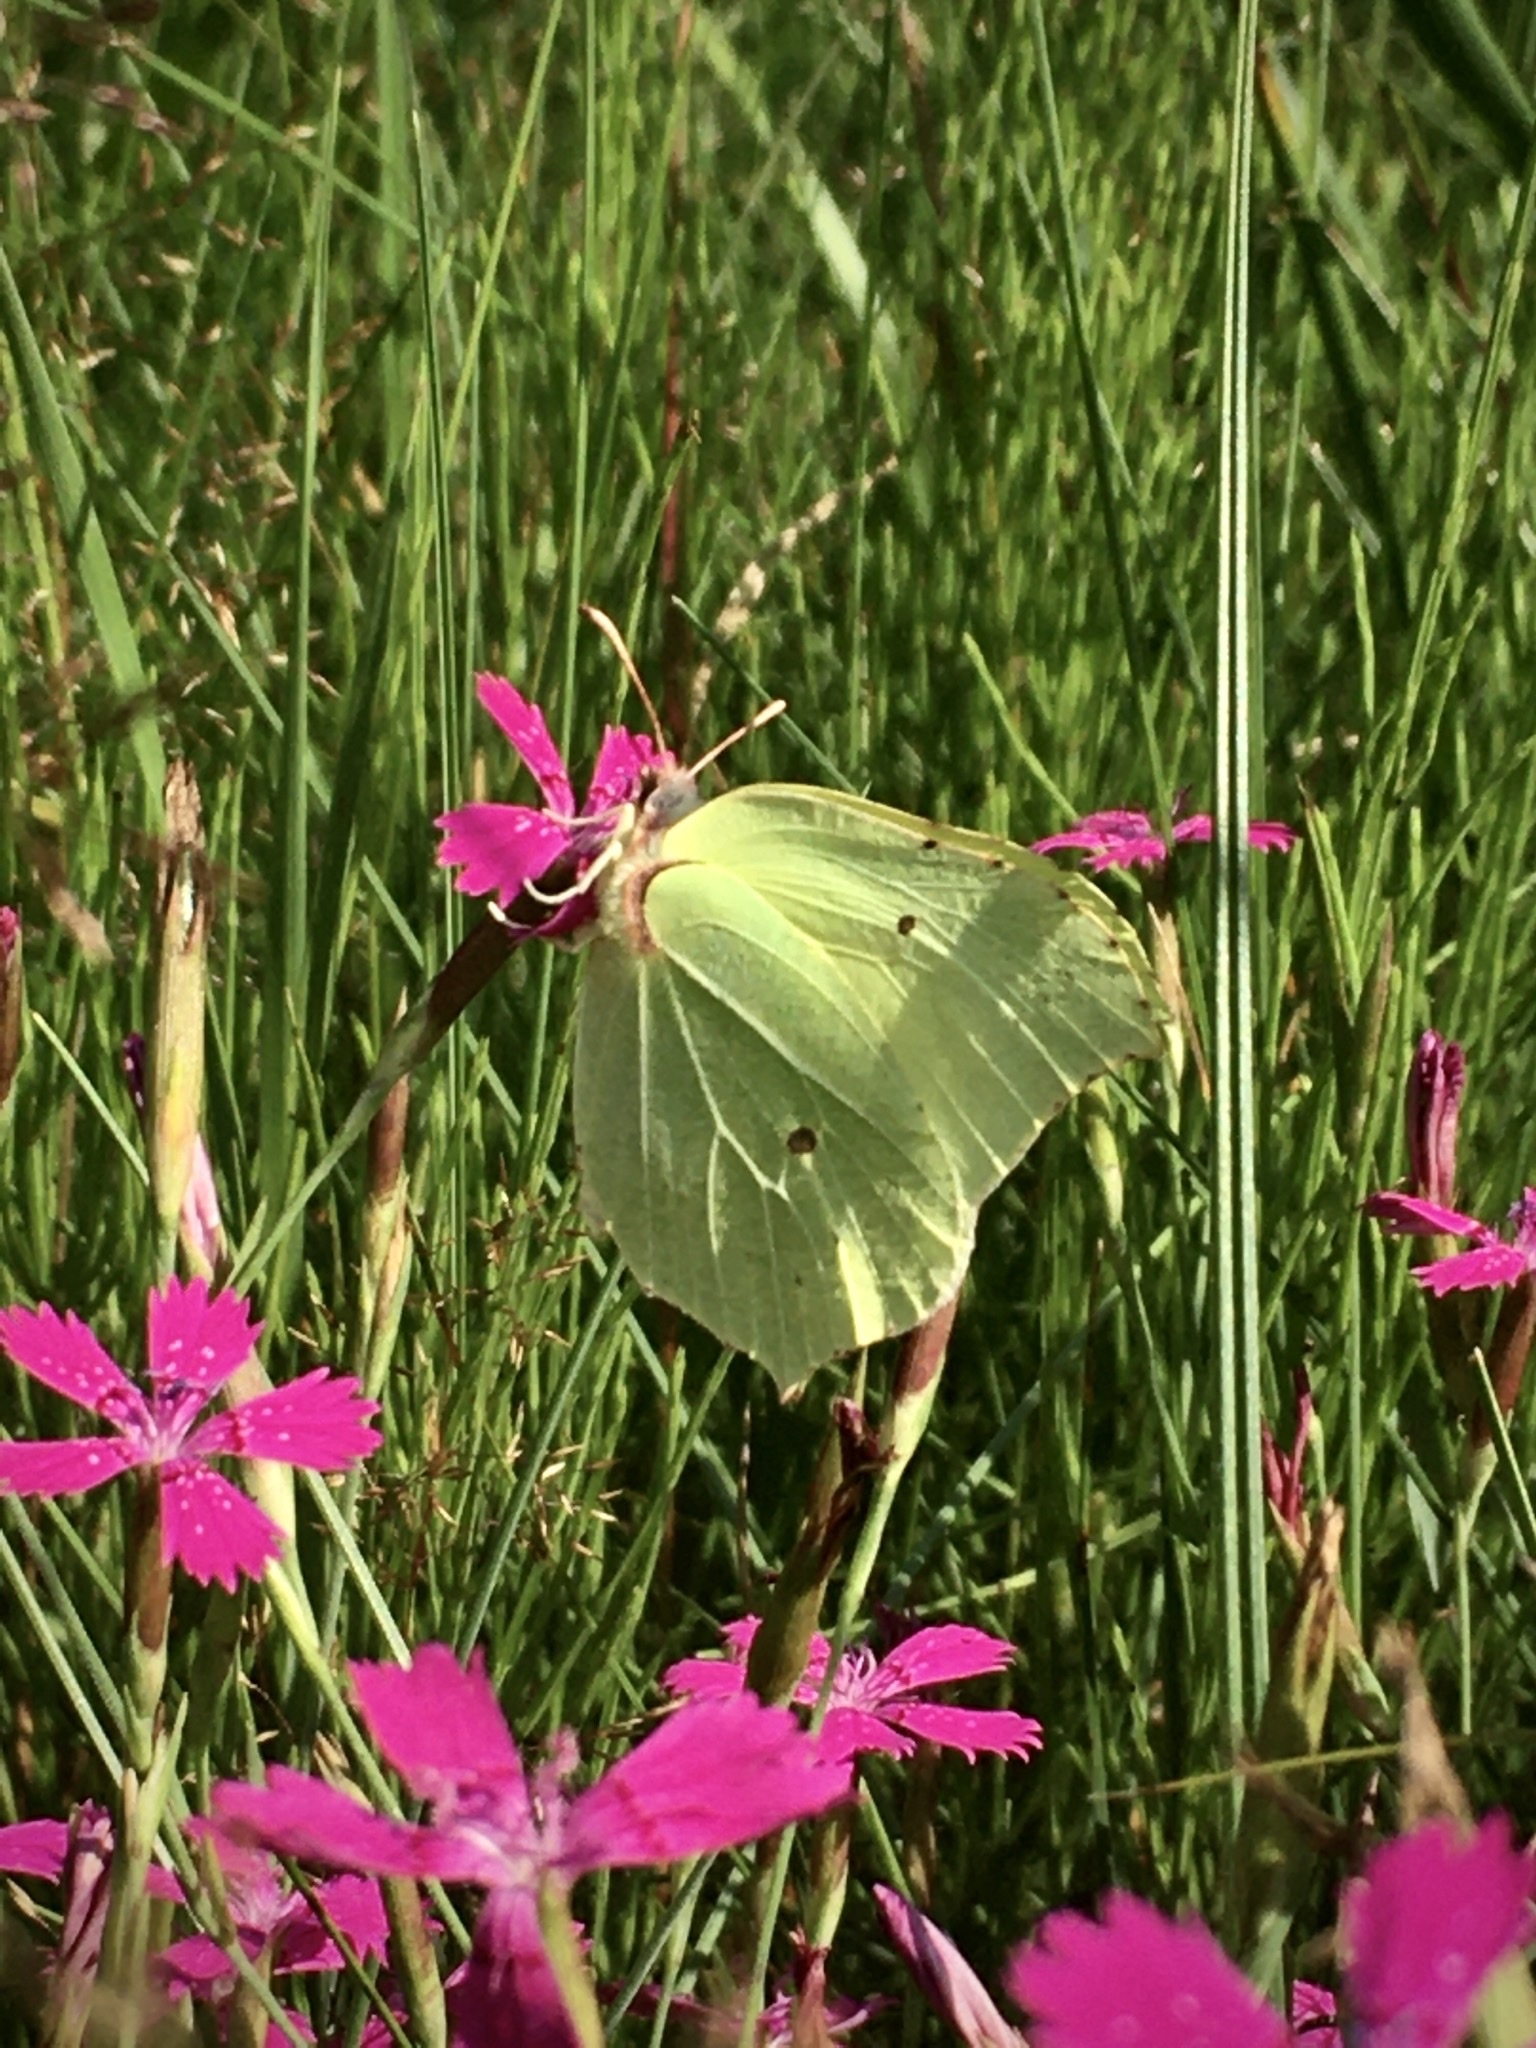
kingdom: Animalia
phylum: Arthropoda
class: Insecta
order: Lepidoptera
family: Pieridae
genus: Gonepteryx
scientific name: Gonepteryx rhamni
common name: Brimstone
